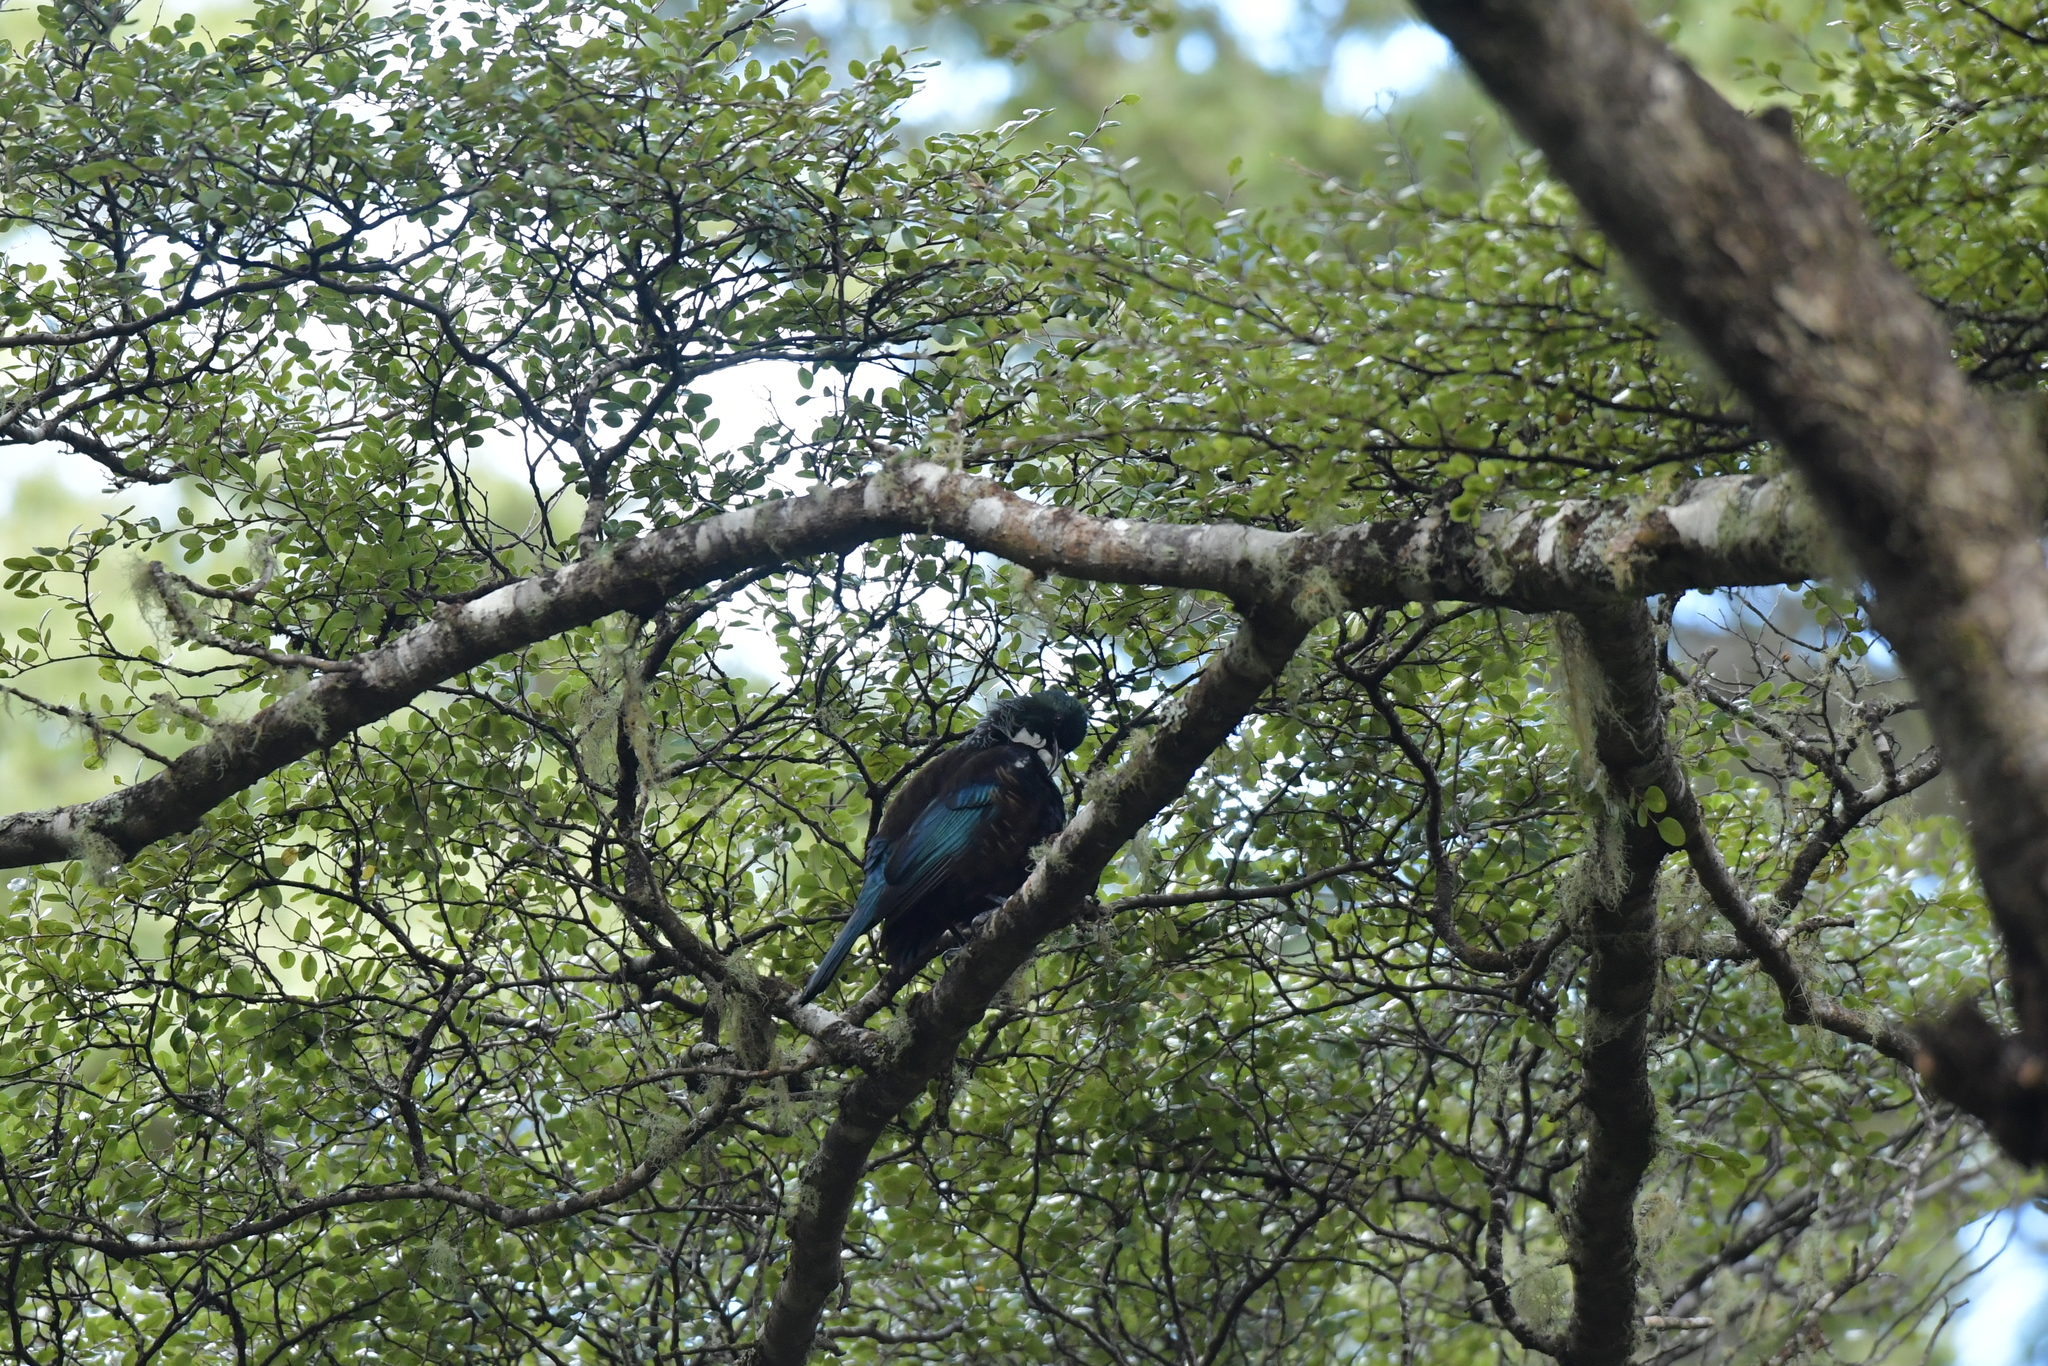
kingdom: Animalia
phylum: Chordata
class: Aves
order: Passeriformes
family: Meliphagidae
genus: Prosthemadera
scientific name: Prosthemadera novaeseelandiae
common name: Tui
